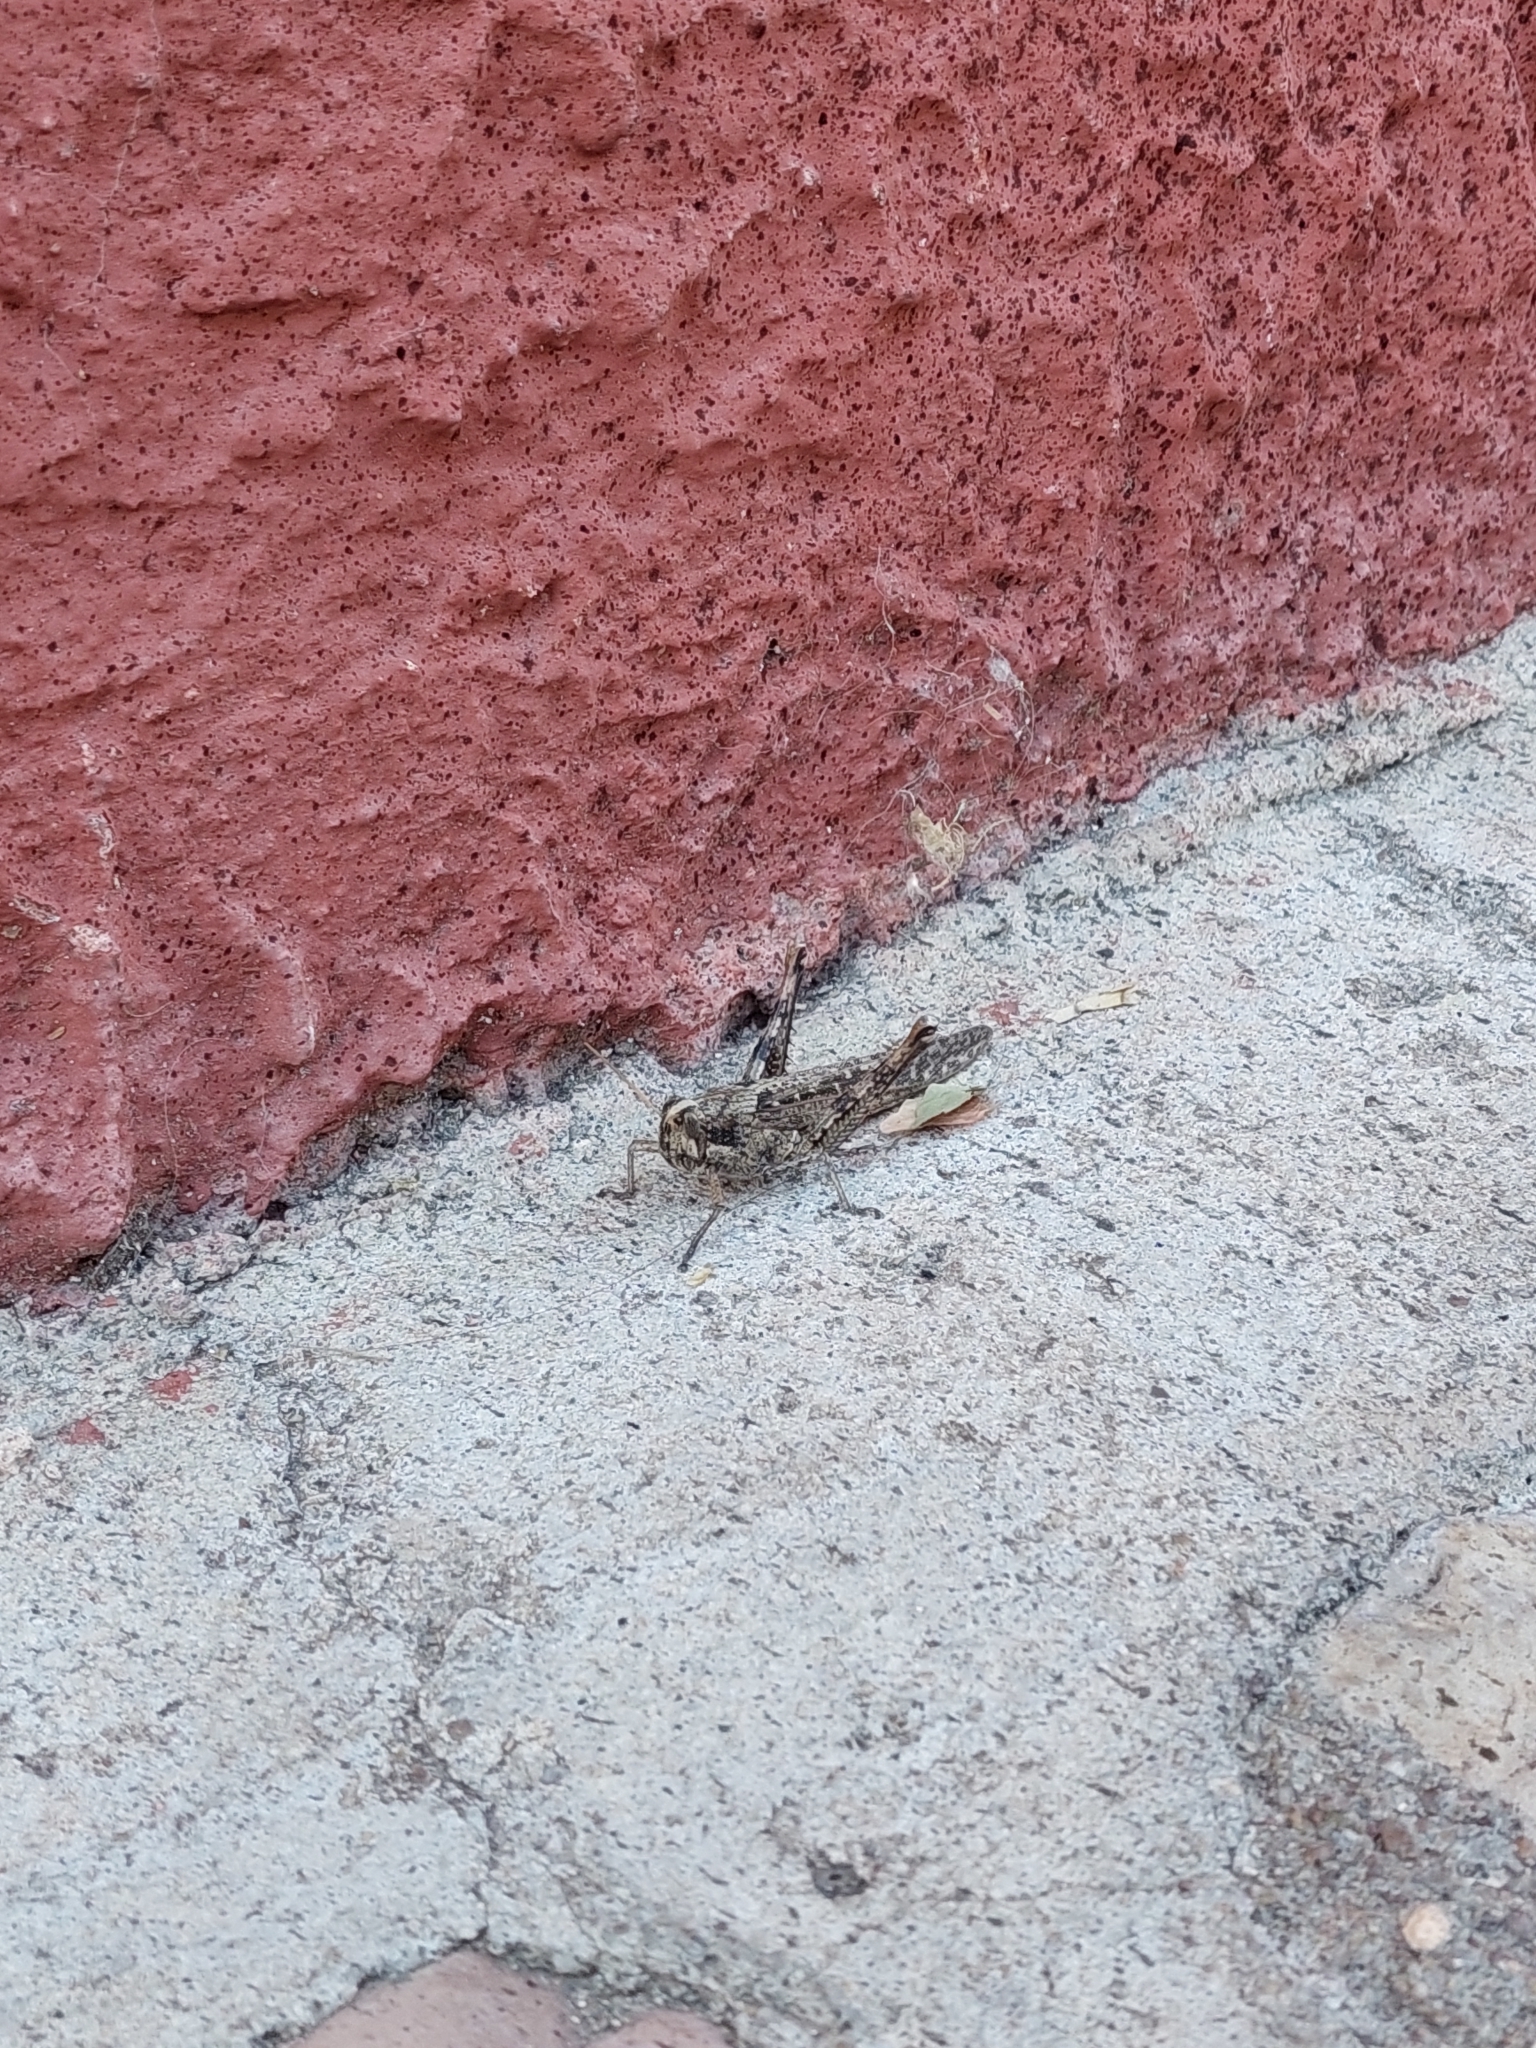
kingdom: Animalia
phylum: Arthropoda
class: Insecta
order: Orthoptera
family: Acrididae
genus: Schistocerca
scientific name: Schistocerca nitens
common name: Vagrant grasshopper
